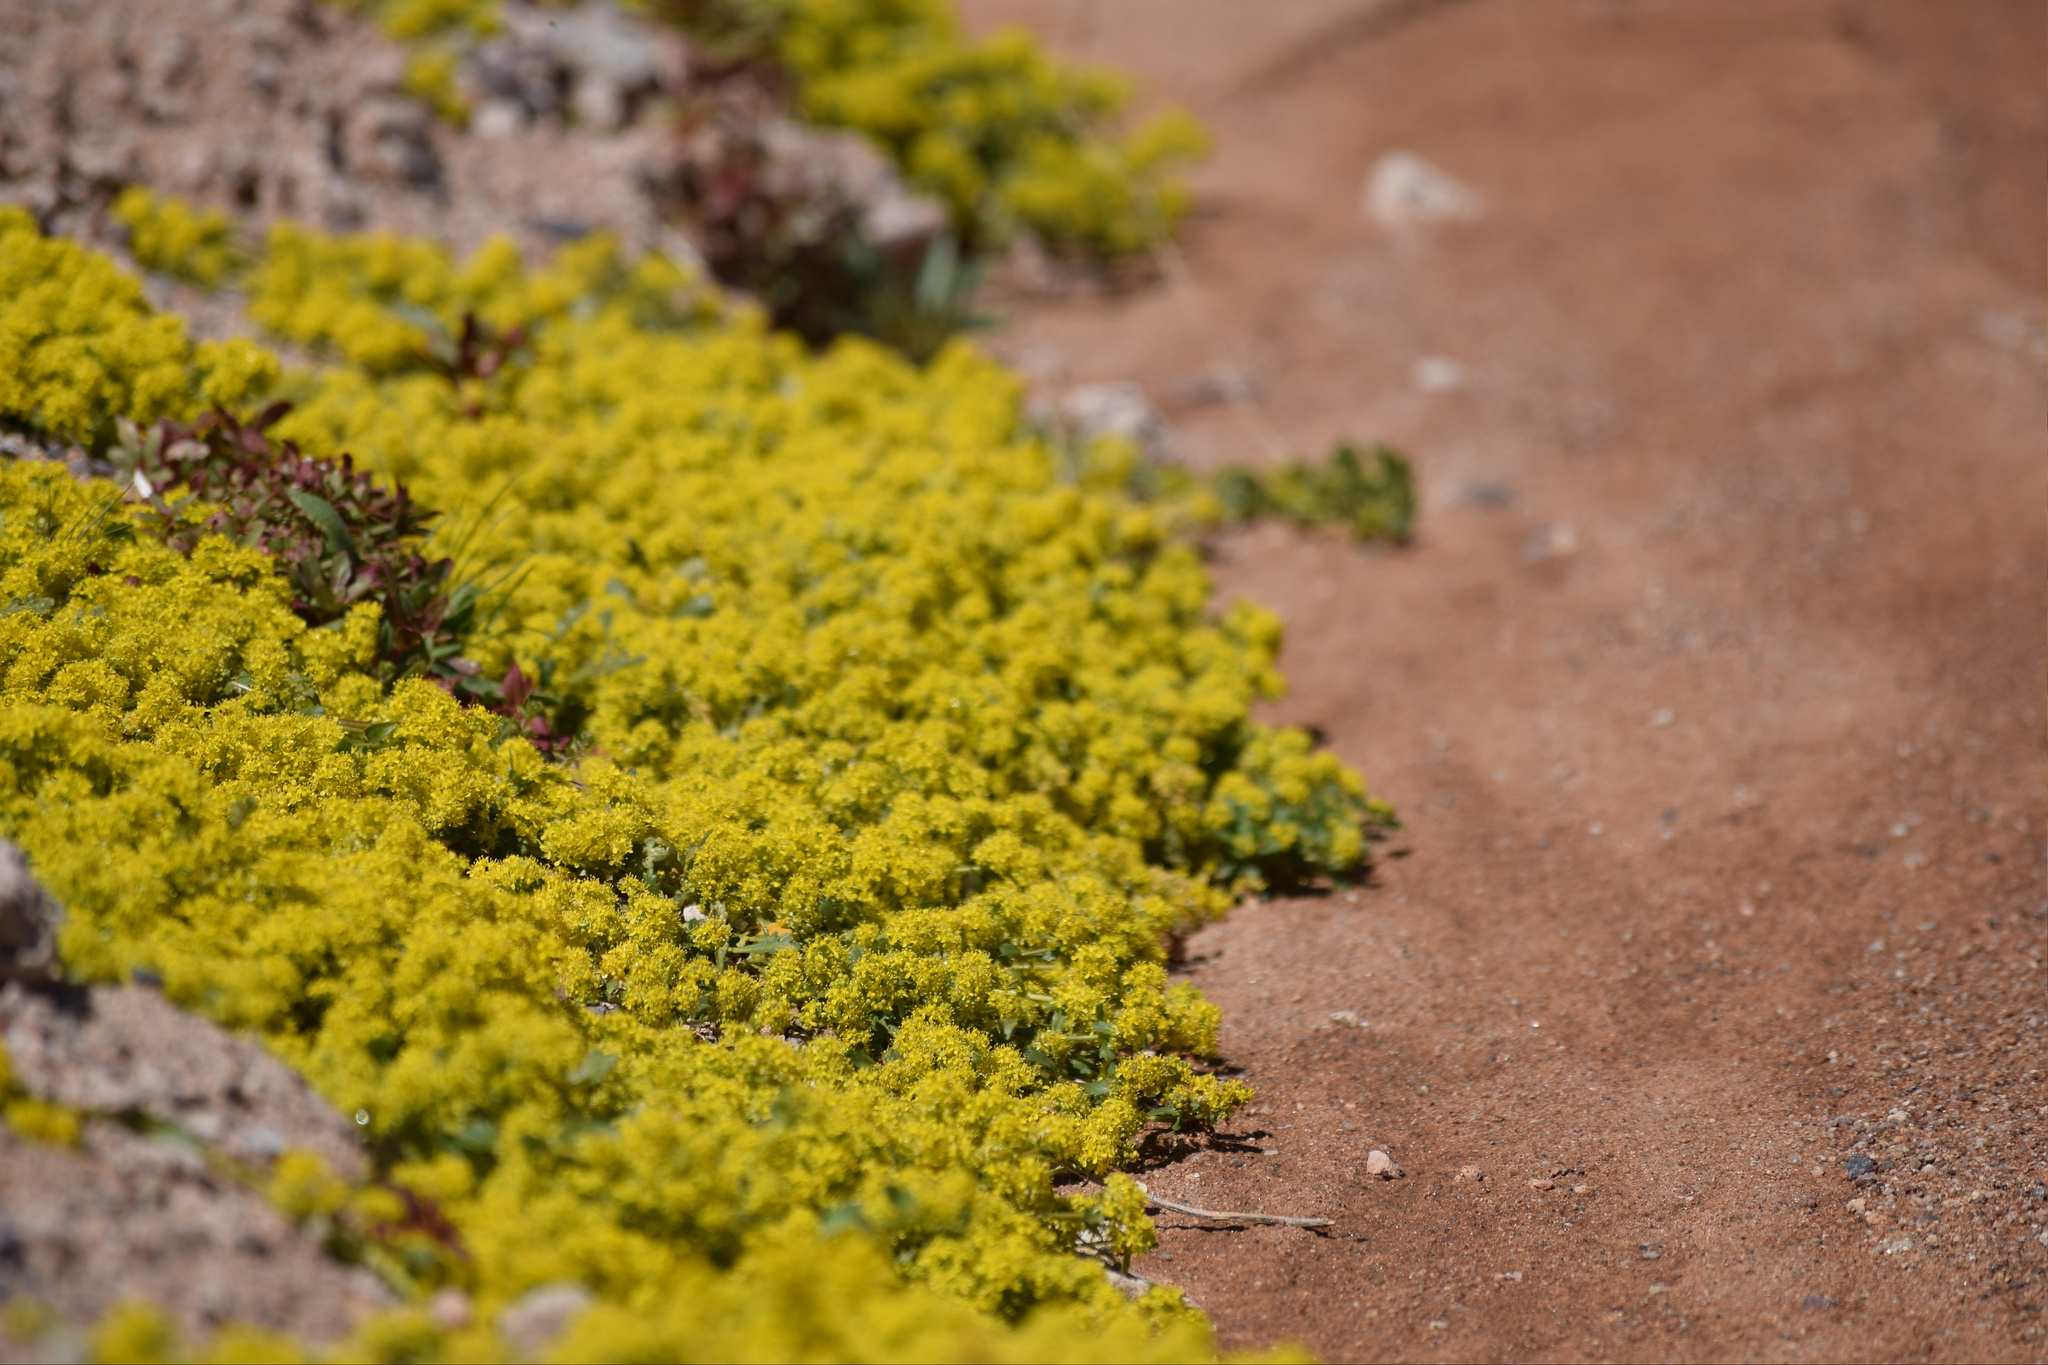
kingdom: Plantae
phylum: Tracheophyta
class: Magnoliopsida
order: Brassicales
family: Brassicaceae
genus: Lepidium
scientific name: Lepidium flavum
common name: Yellow pepperwort
